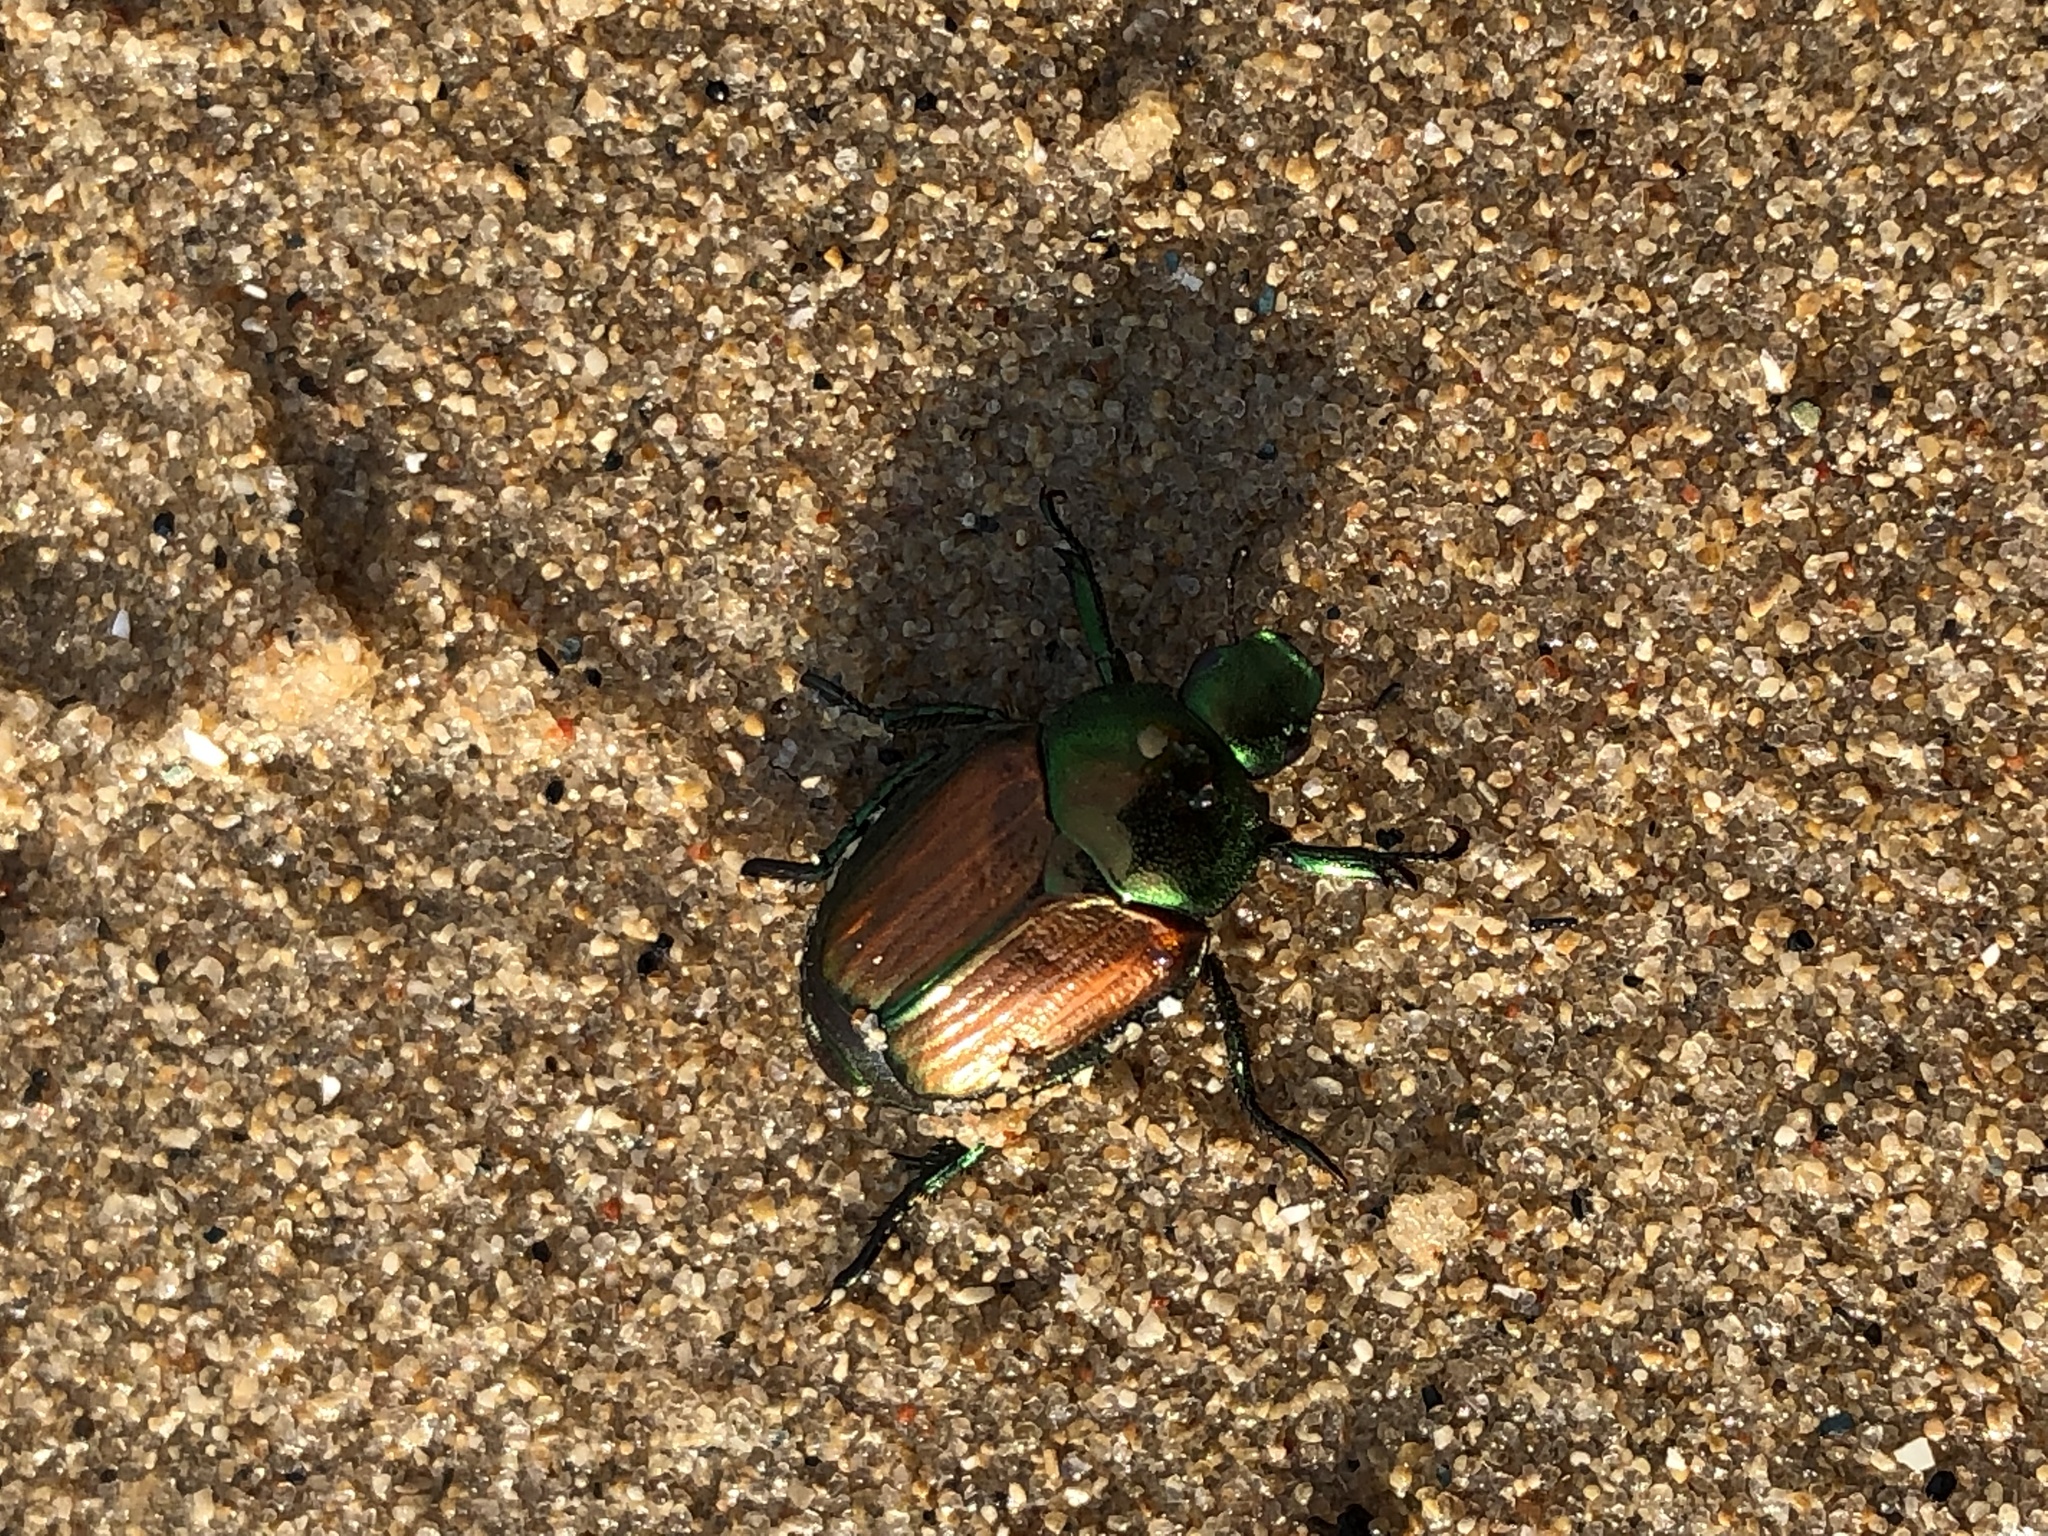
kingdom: Animalia
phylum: Arthropoda
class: Insecta
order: Coleoptera
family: Scarabaeidae
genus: Popillia
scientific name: Popillia japonica
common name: Japanese beetle
